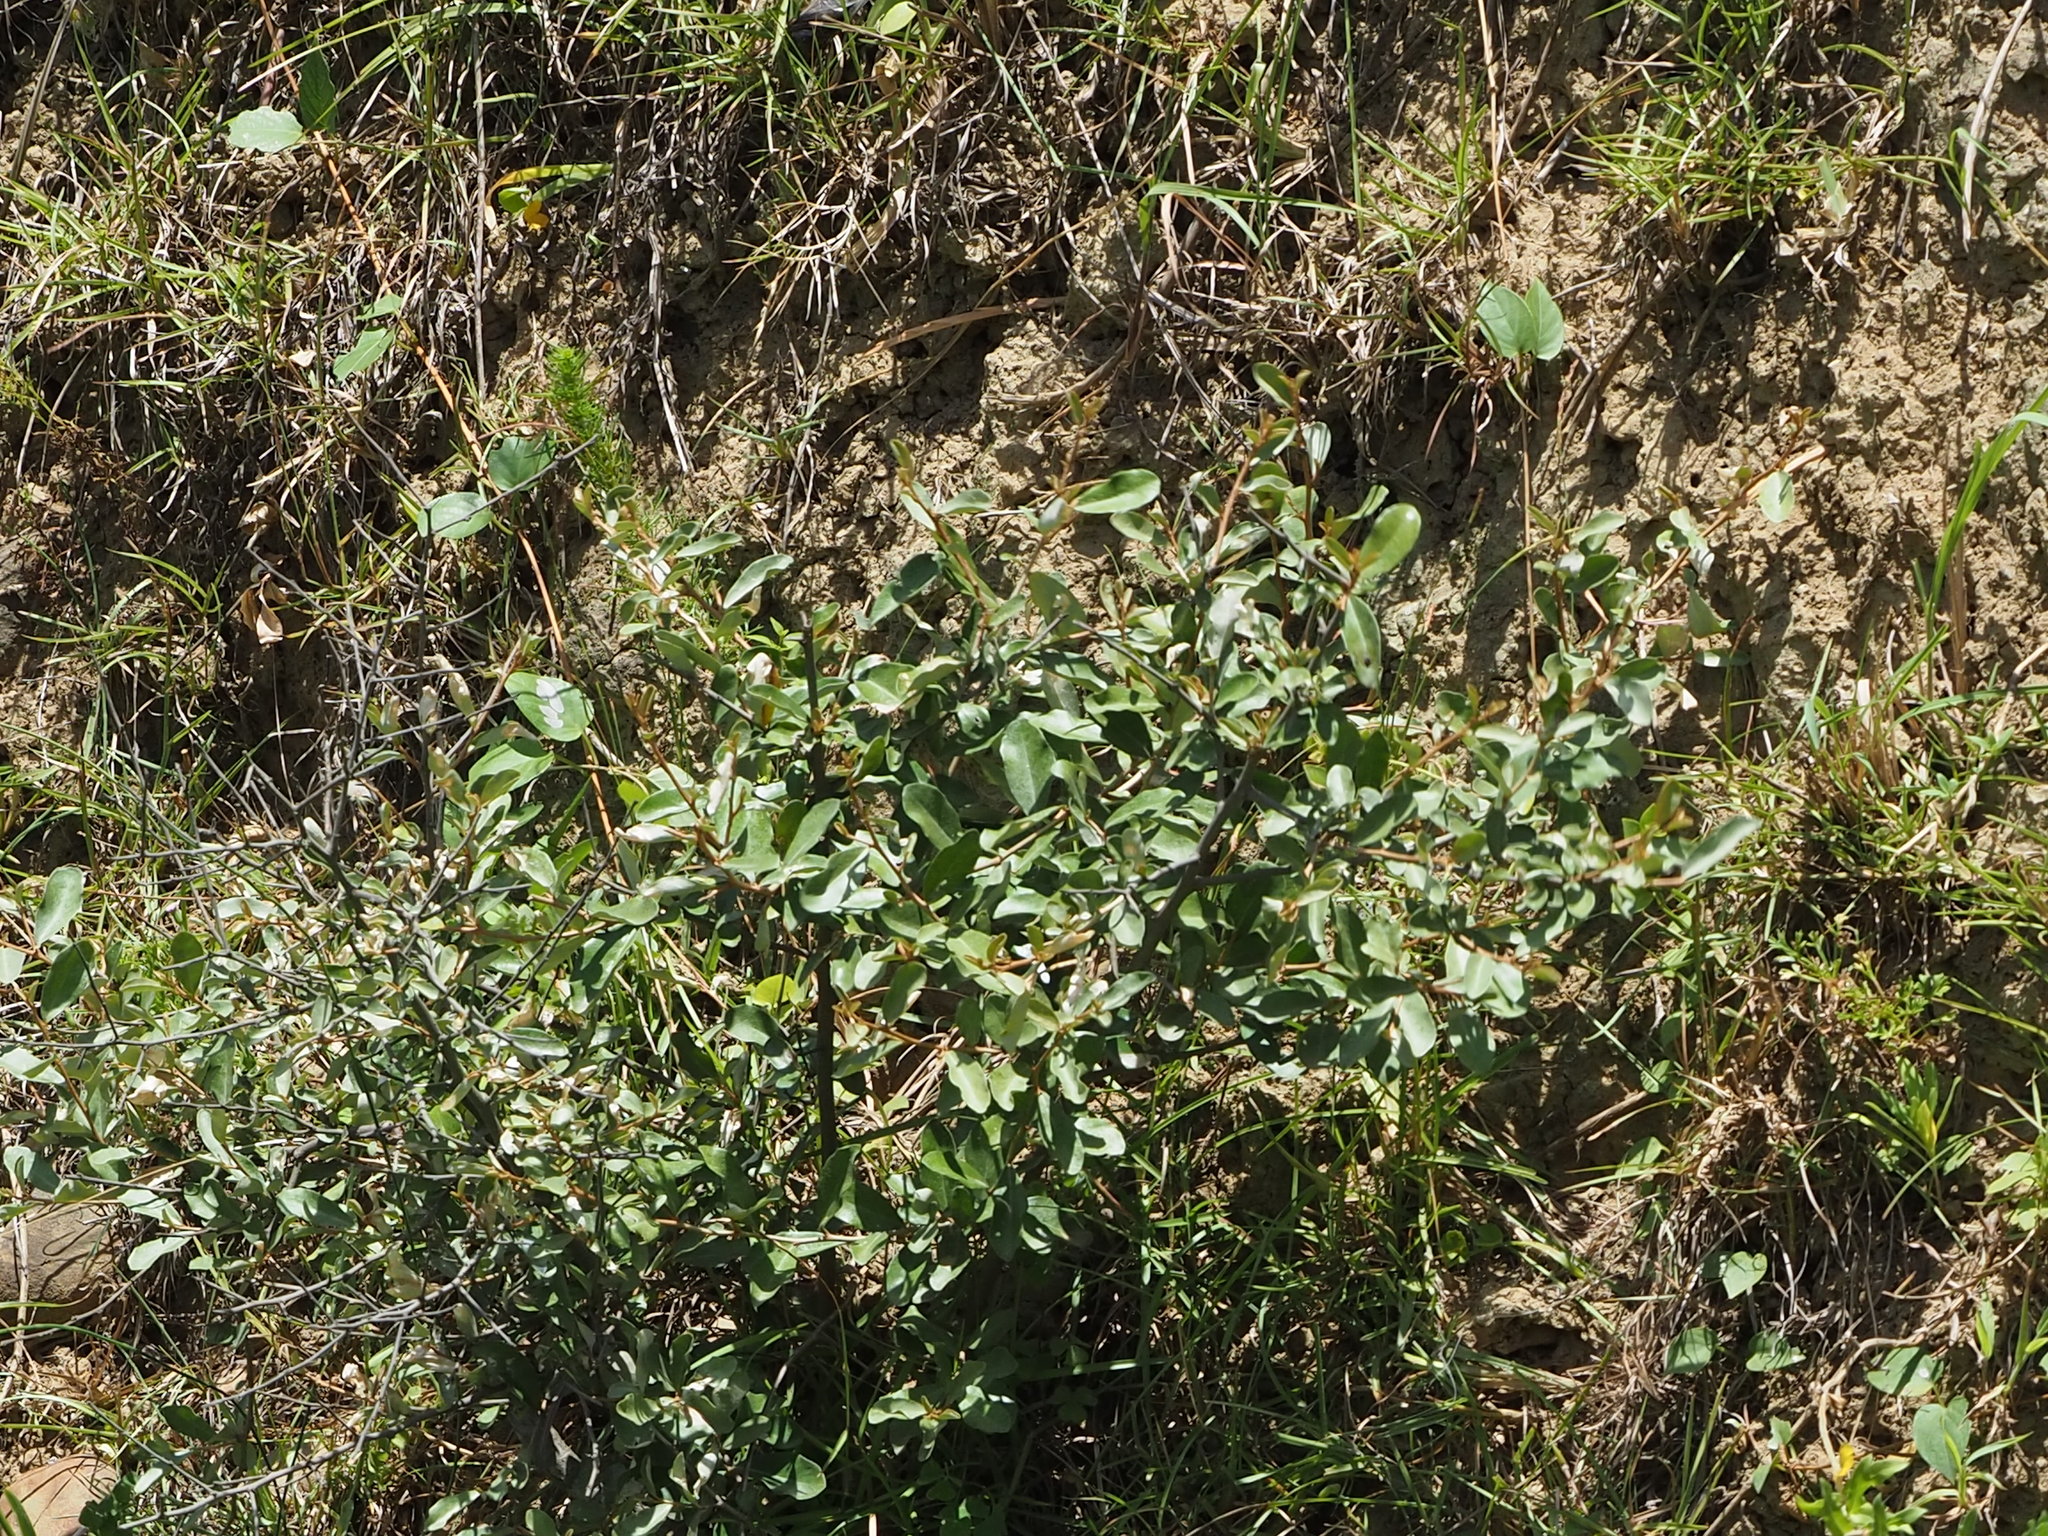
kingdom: Plantae
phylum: Tracheophyta
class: Magnoliopsida
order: Rosales
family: Elaeagnaceae
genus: Elaeagnus
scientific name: Elaeagnus oldhamii
